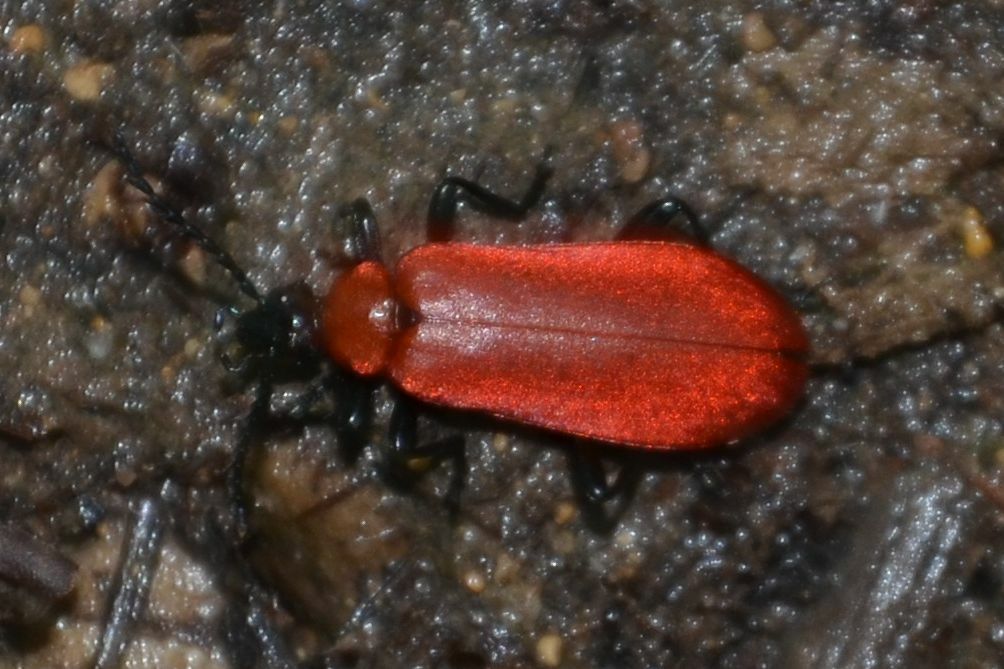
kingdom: Animalia
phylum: Arthropoda
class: Insecta
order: Coleoptera
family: Pyrochroidae
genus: Pyrochroa
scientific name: Pyrochroa coccinea
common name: Black-headed cardinal beetle
